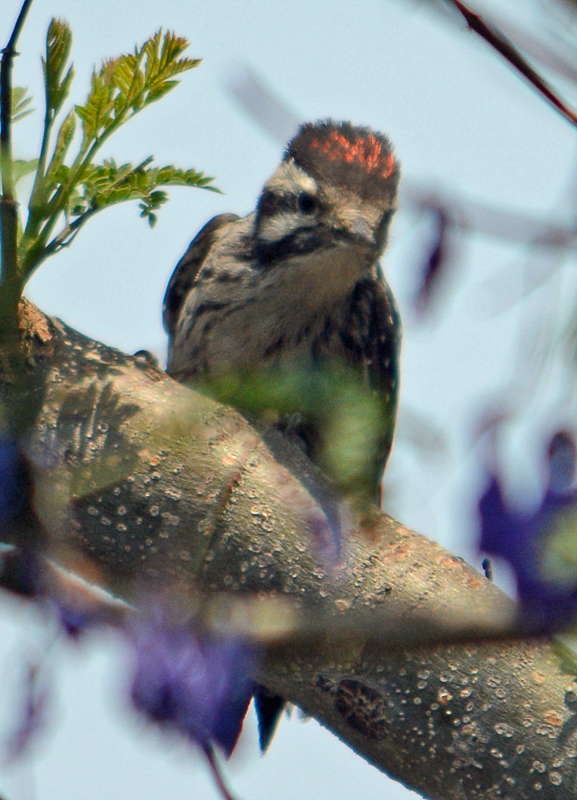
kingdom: Animalia
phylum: Chordata
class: Aves
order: Piciformes
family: Picidae
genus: Dryobates
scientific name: Dryobates scalaris
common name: Ladder-backed woodpecker
